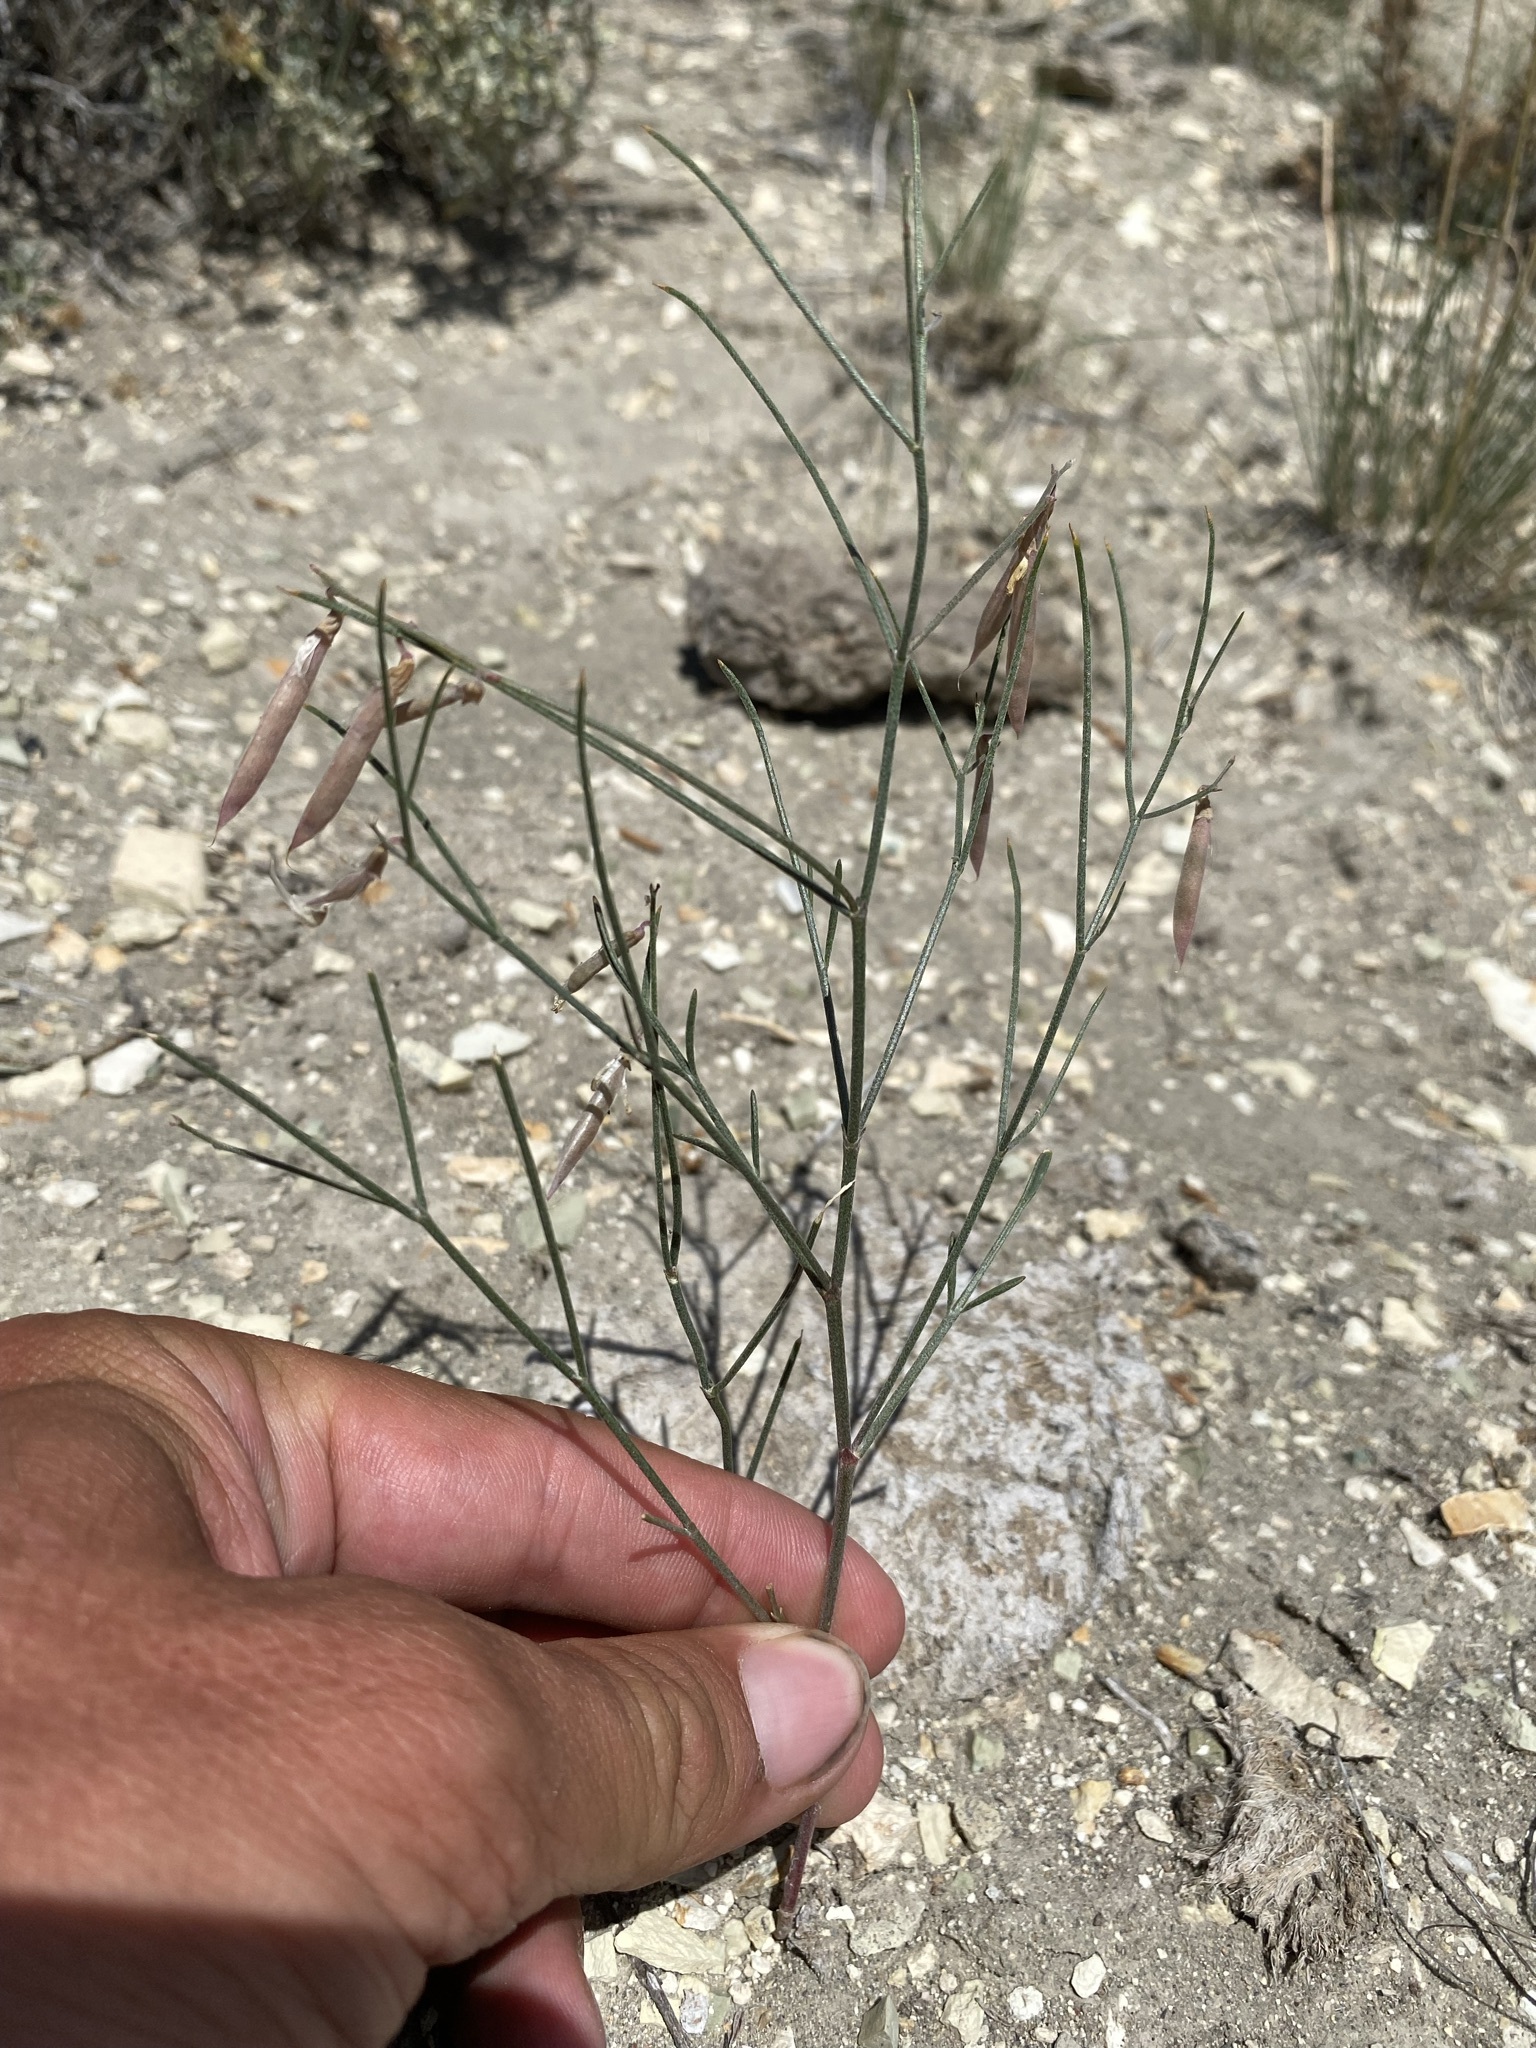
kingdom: Plantae
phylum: Tracheophyta
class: Magnoliopsida
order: Fabales
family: Fabaceae
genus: Astragalus
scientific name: Astragalus convallarius
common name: Lesser rushy milk-vetch
